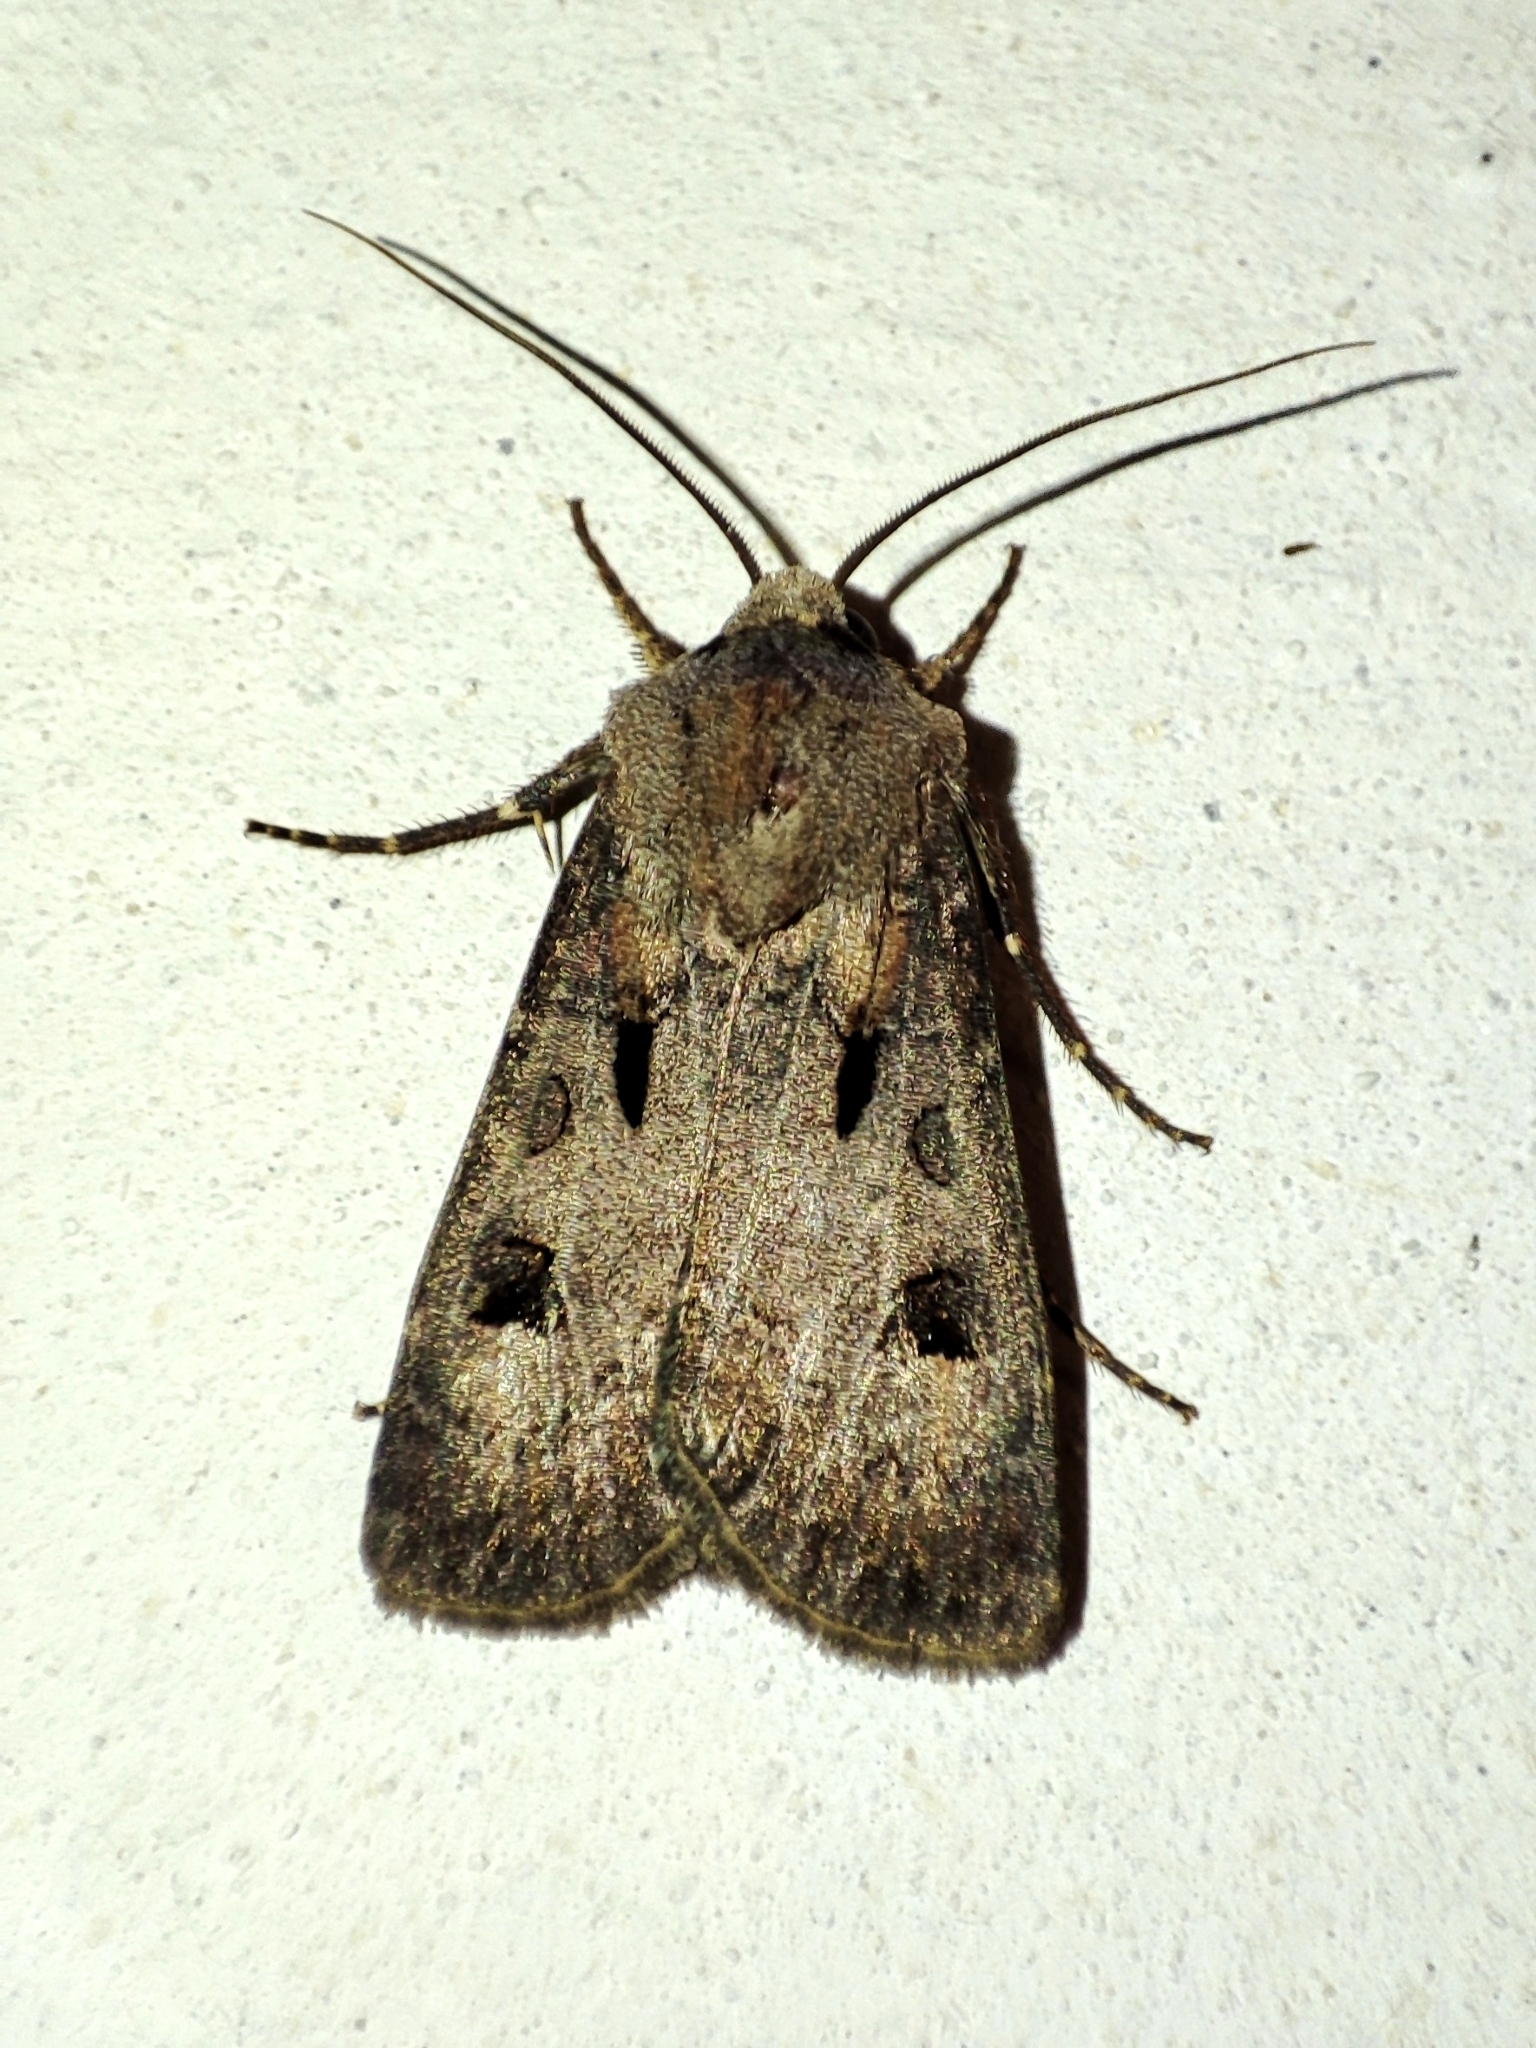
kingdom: Animalia
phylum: Arthropoda
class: Insecta
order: Lepidoptera
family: Noctuidae
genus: Agrotis
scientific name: Agrotis exclamationis
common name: Heart and dart
